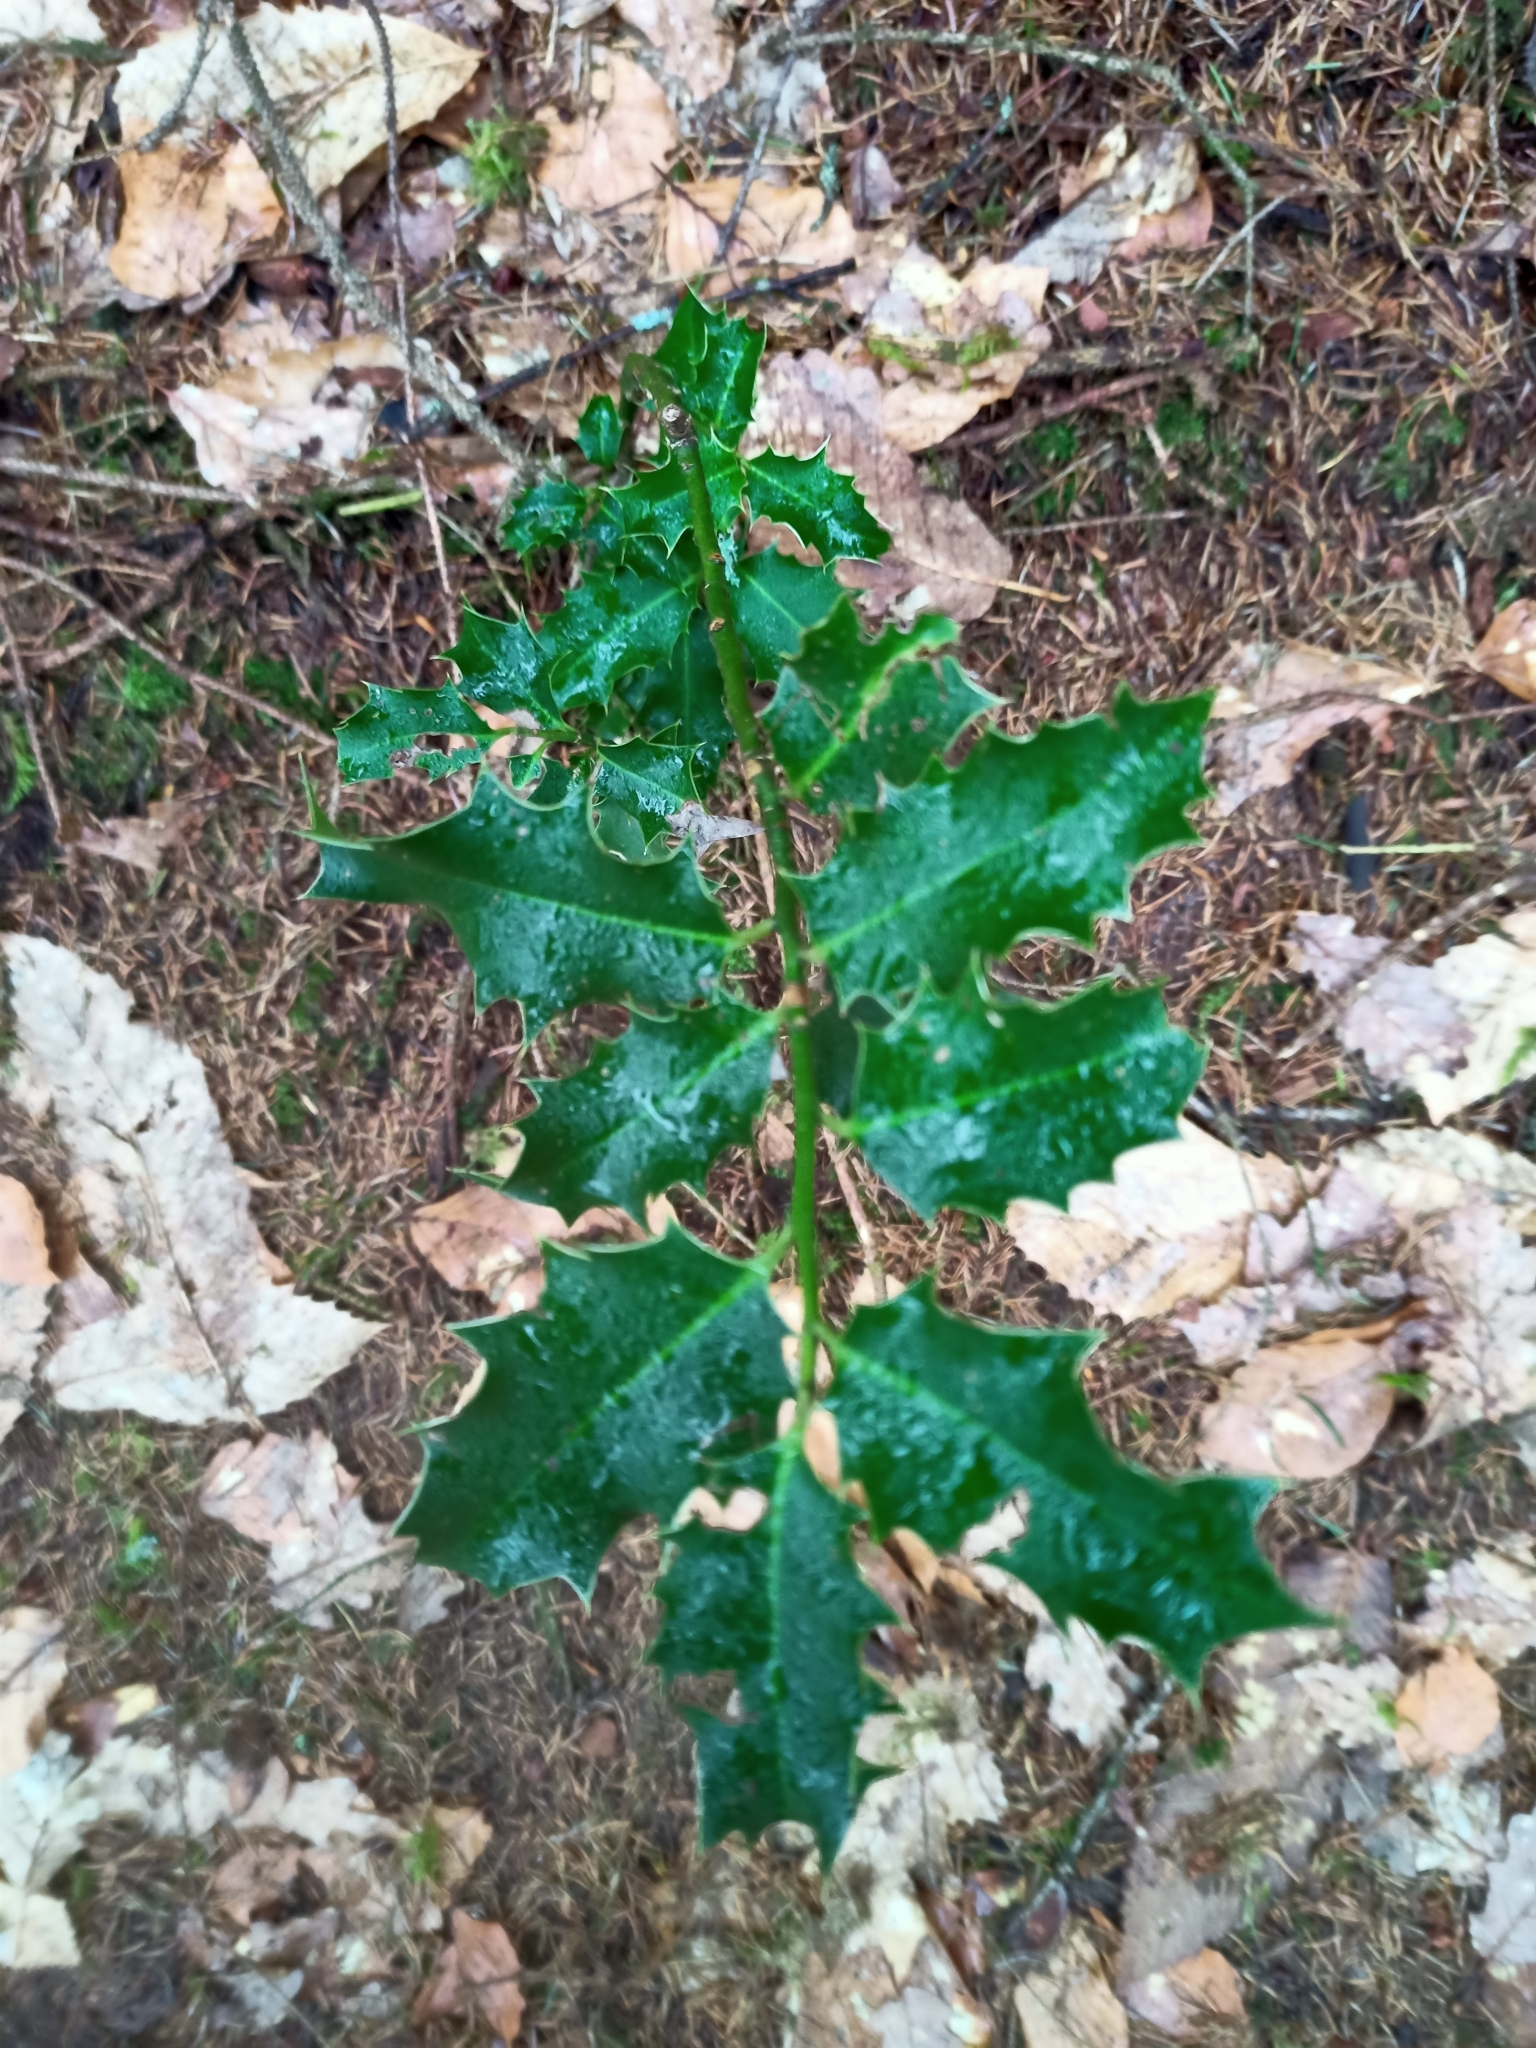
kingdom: Plantae
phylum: Tracheophyta
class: Magnoliopsida
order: Aquifoliales
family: Aquifoliaceae
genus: Ilex
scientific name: Ilex aquifolium
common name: English holly
